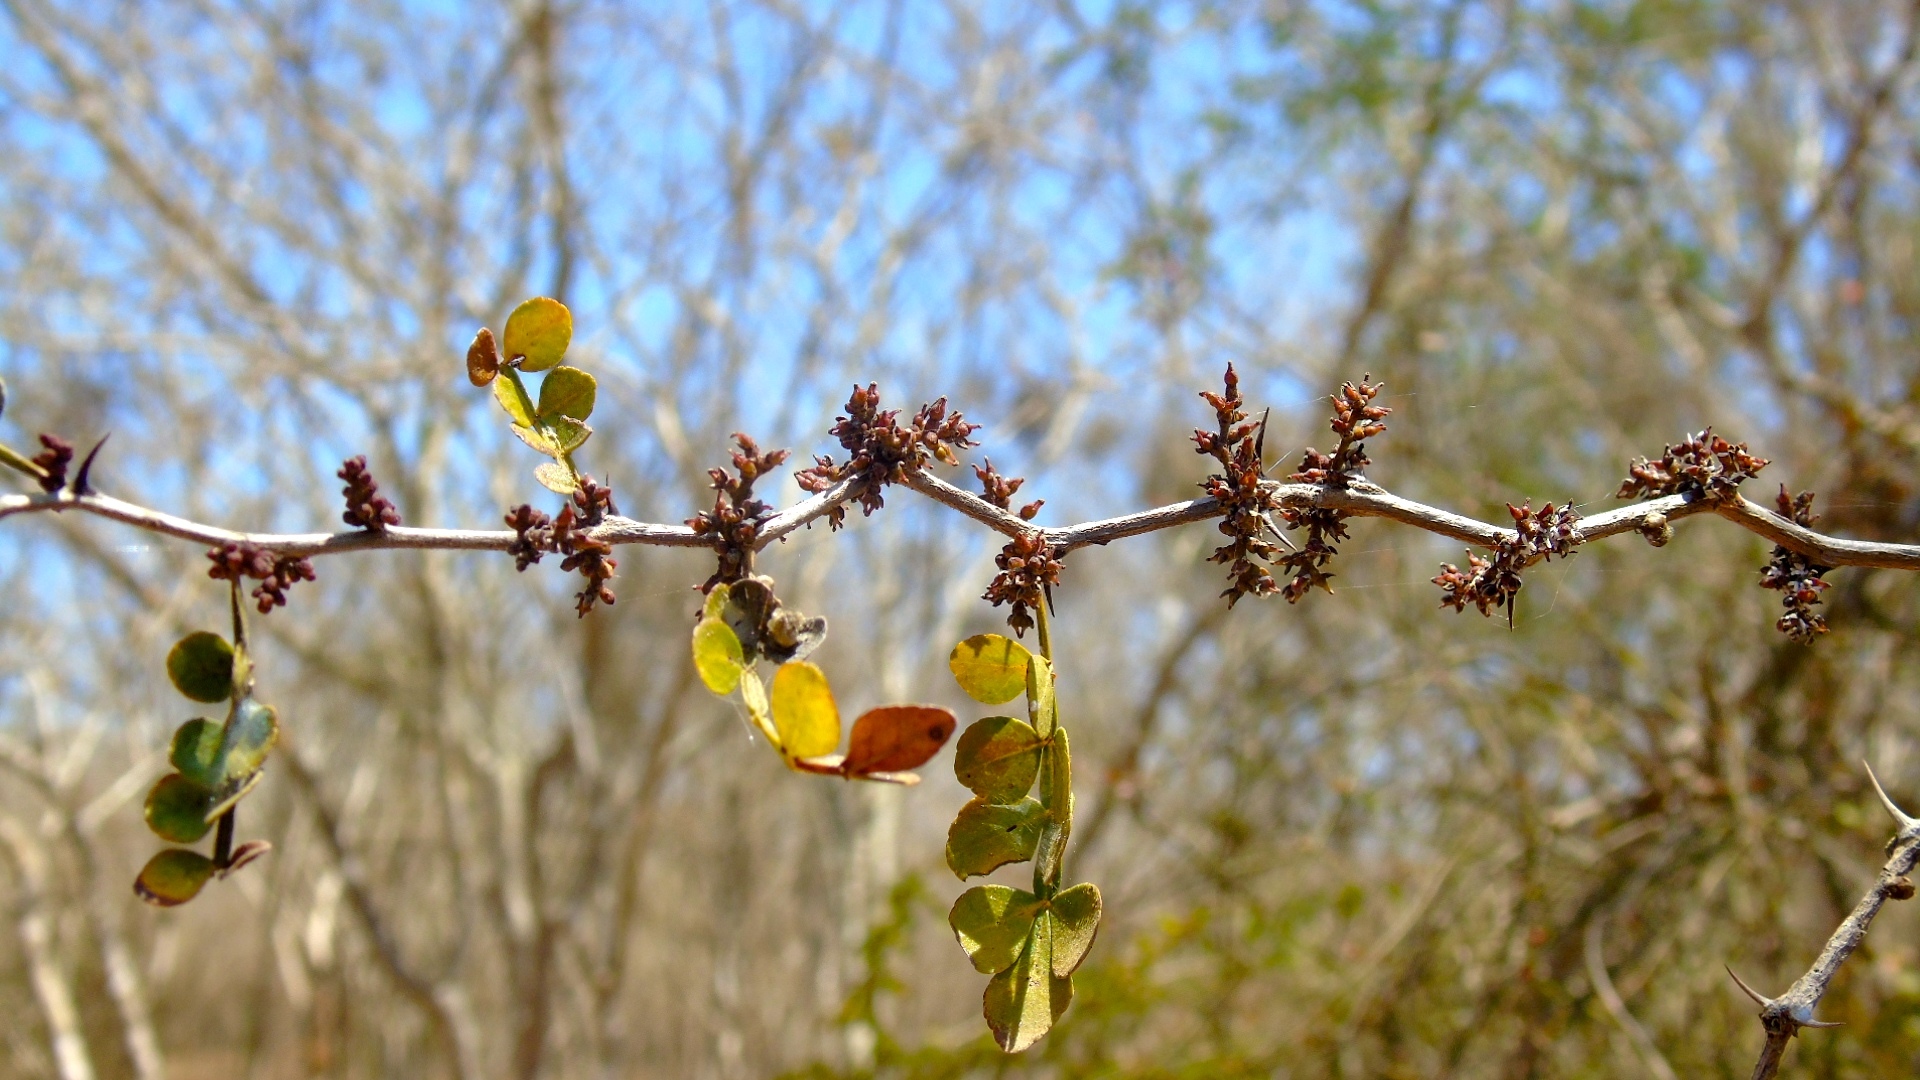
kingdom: Plantae
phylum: Tracheophyta
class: Magnoliopsida
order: Sapindales
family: Rutaceae
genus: Zanthoxylum
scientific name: Zanthoxylum fagara
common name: Lime prickly-ash
